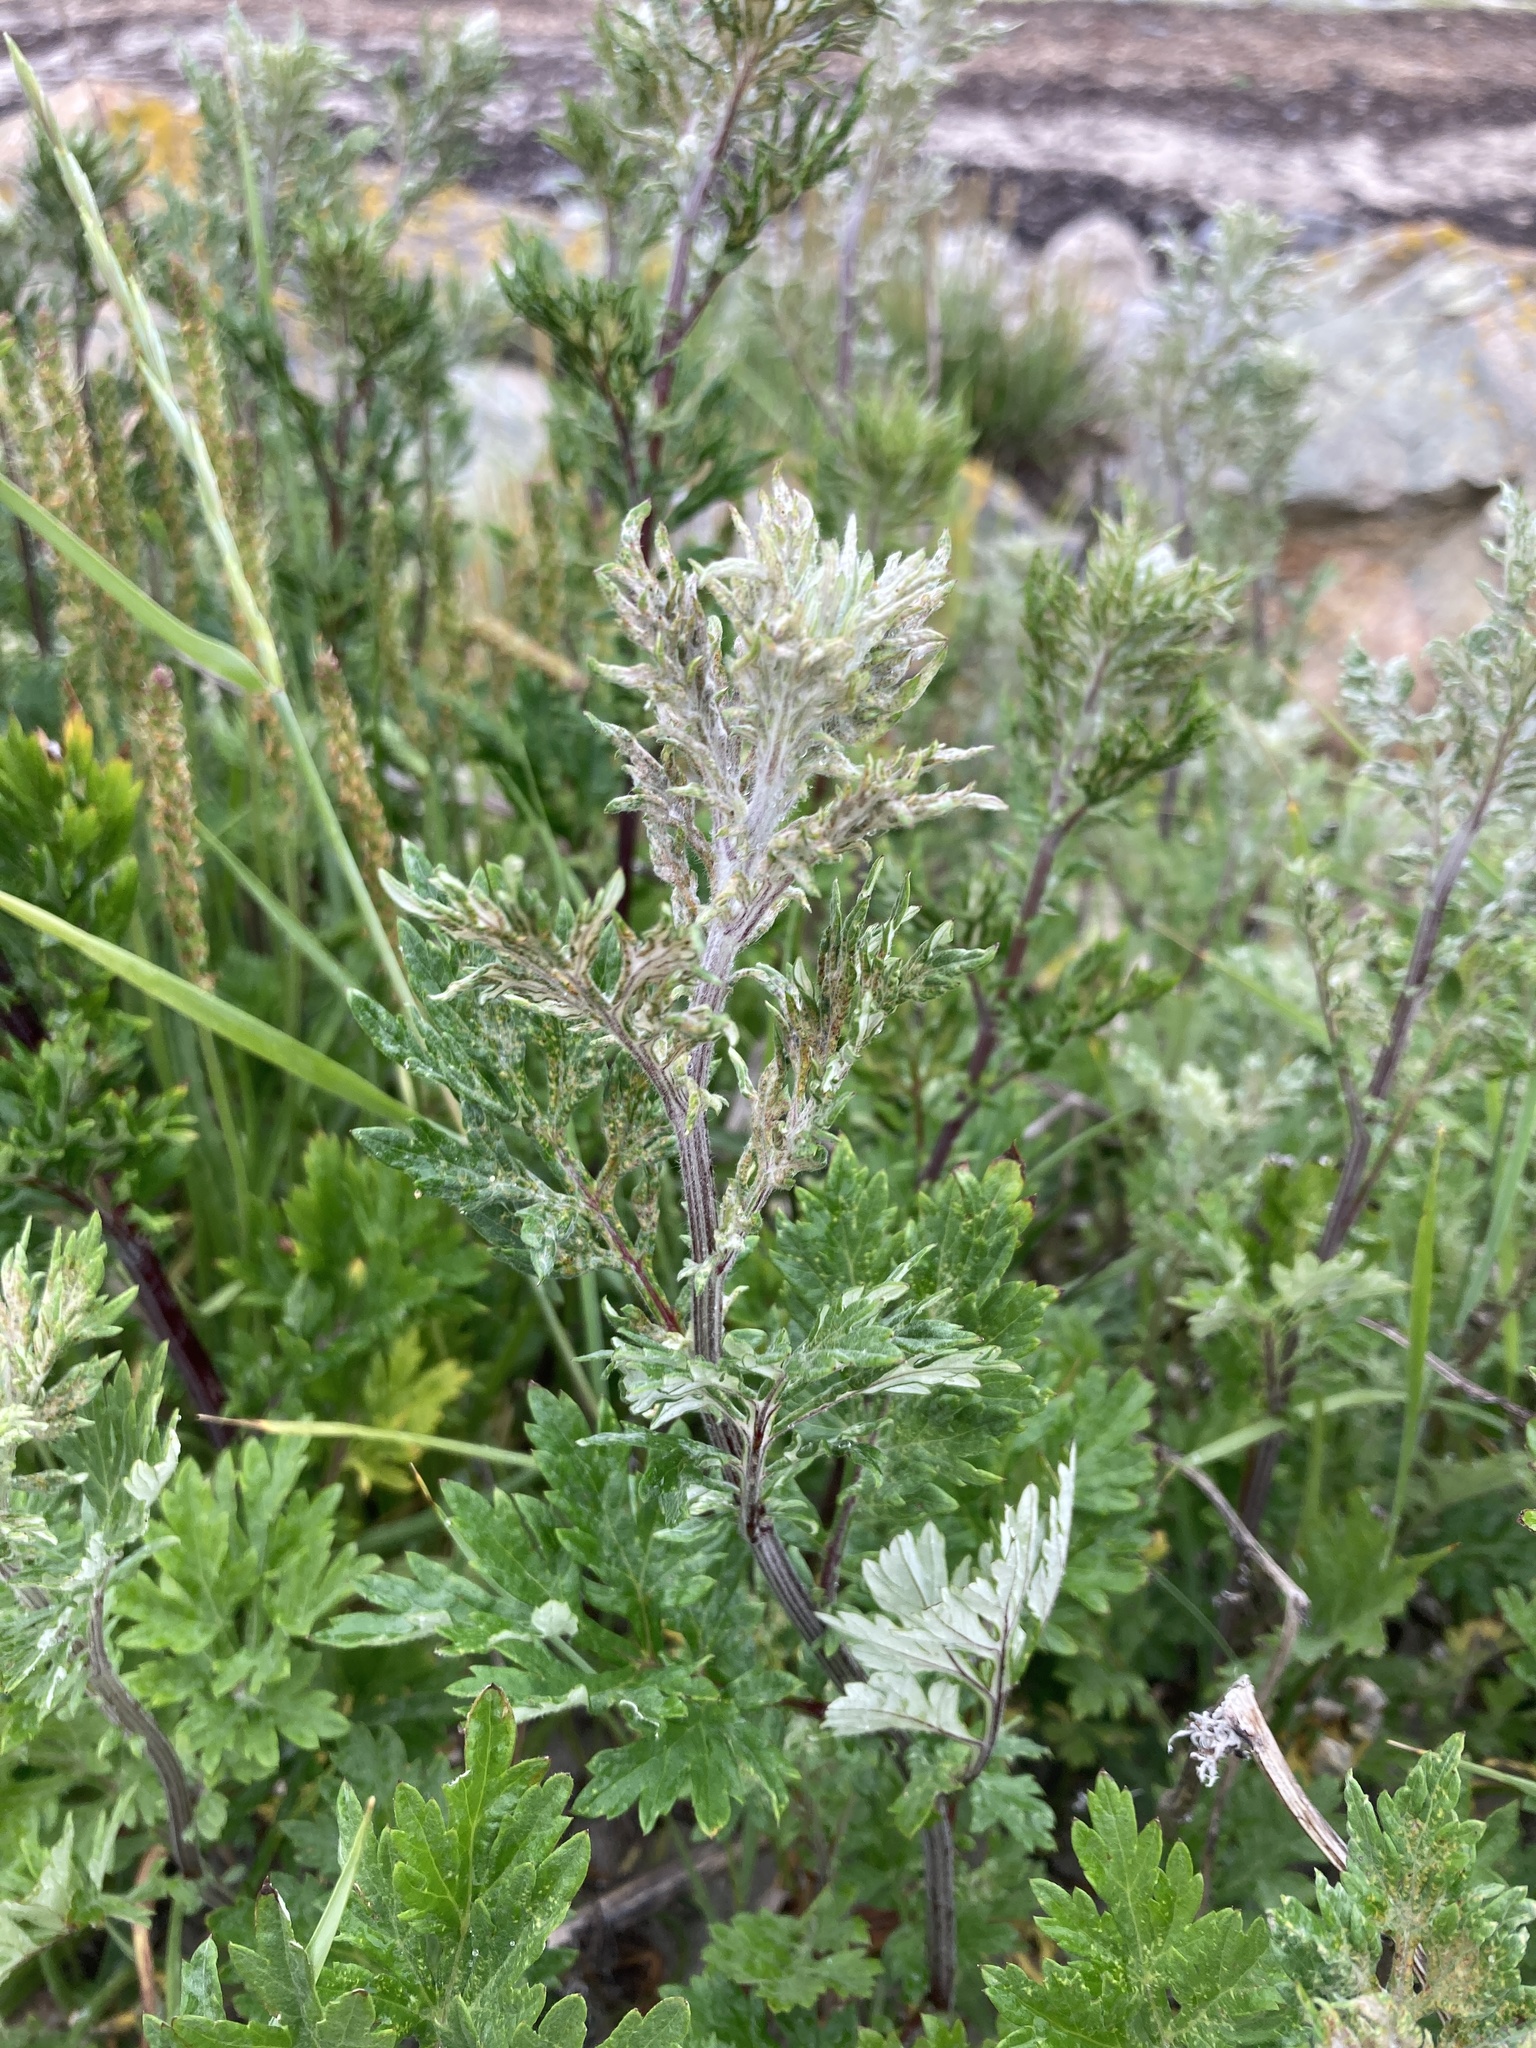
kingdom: Plantae
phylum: Tracheophyta
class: Magnoliopsida
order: Asterales
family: Asteraceae
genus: Artemisia
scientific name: Artemisia vulgaris
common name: Mugwort
